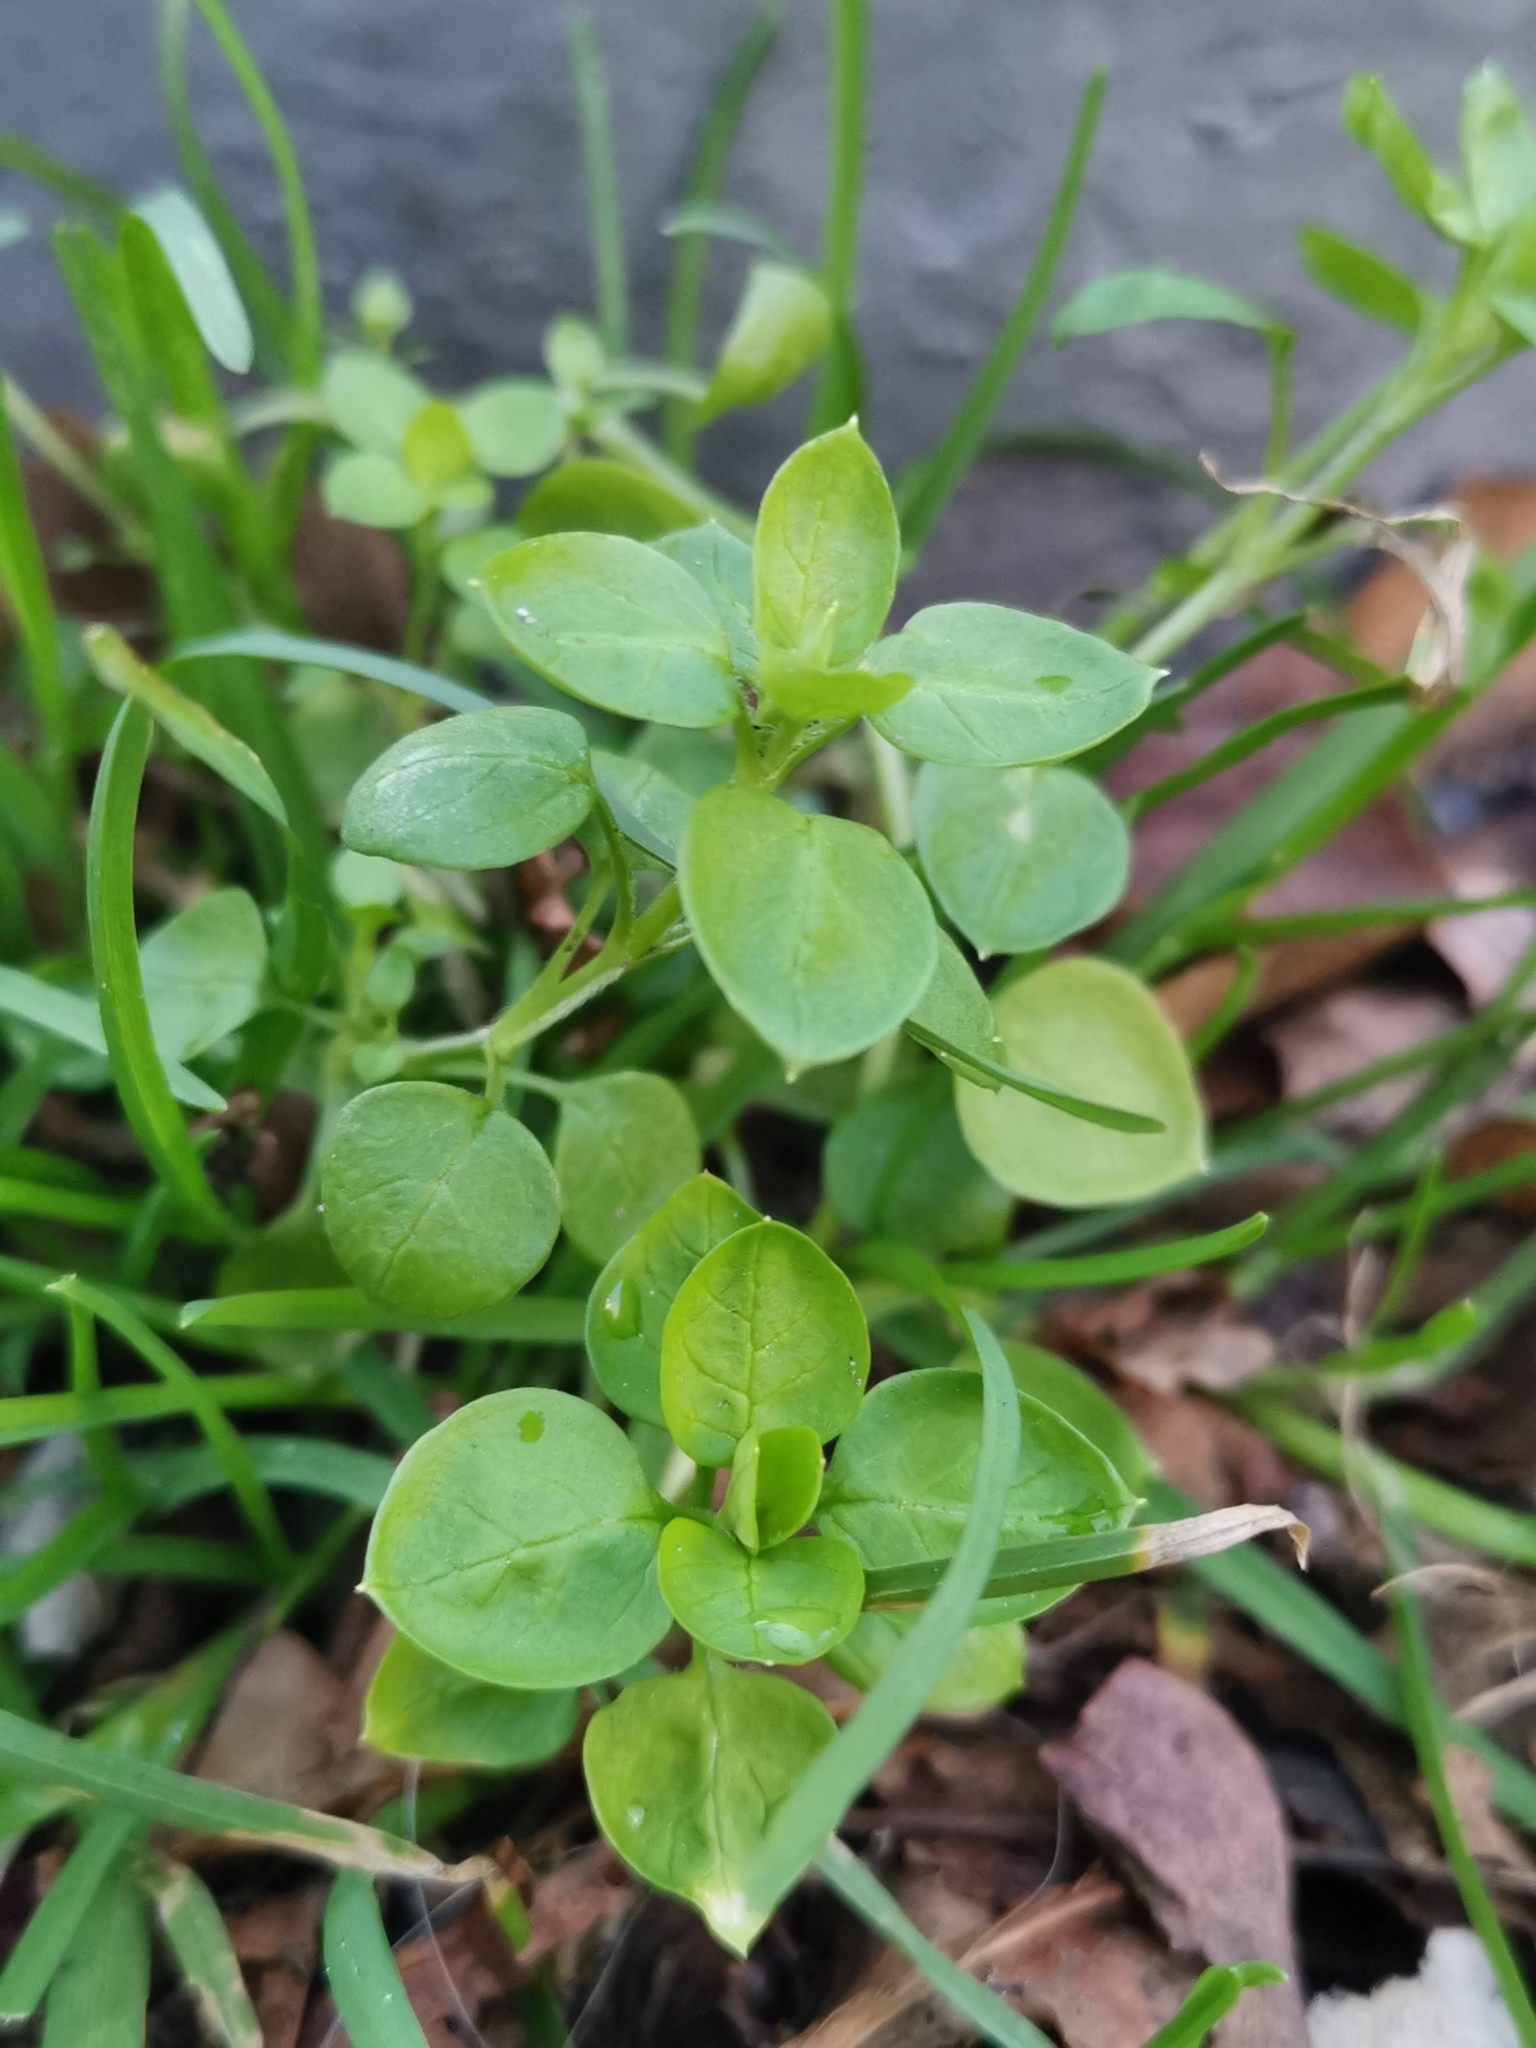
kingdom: Plantae
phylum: Tracheophyta
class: Magnoliopsida
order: Caryophyllales
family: Caryophyllaceae
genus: Stellaria
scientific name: Stellaria media
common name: Common chickweed
